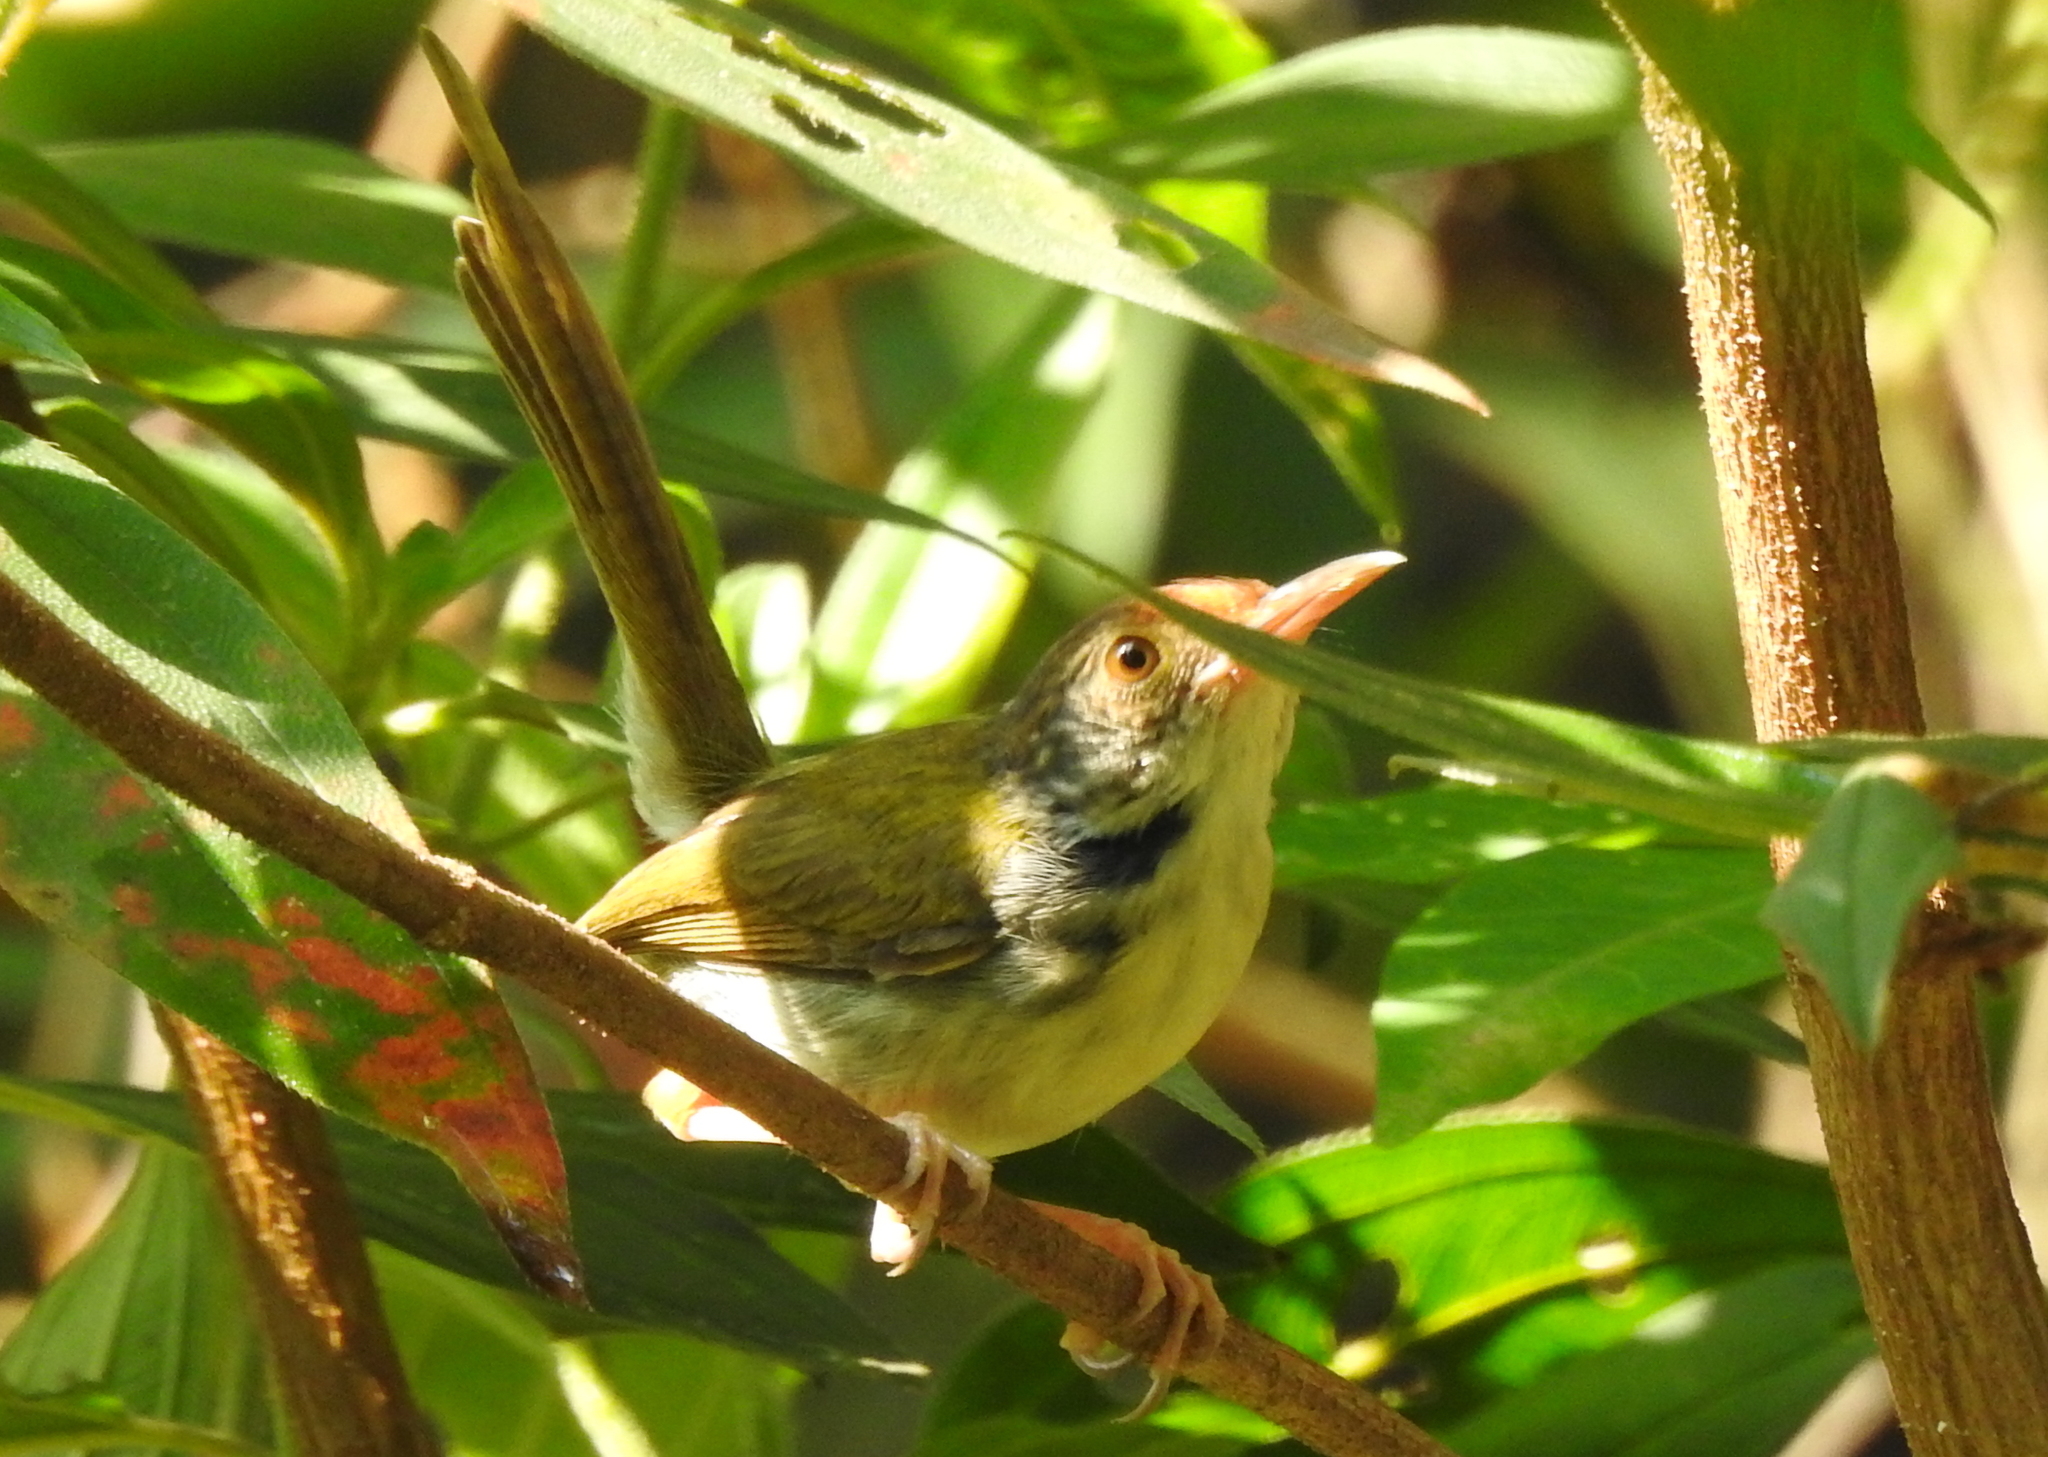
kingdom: Animalia
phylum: Chordata
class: Aves
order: Passeriformes
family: Cisticolidae
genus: Orthotomus
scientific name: Orthotomus sutorius
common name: Common tailorbird
